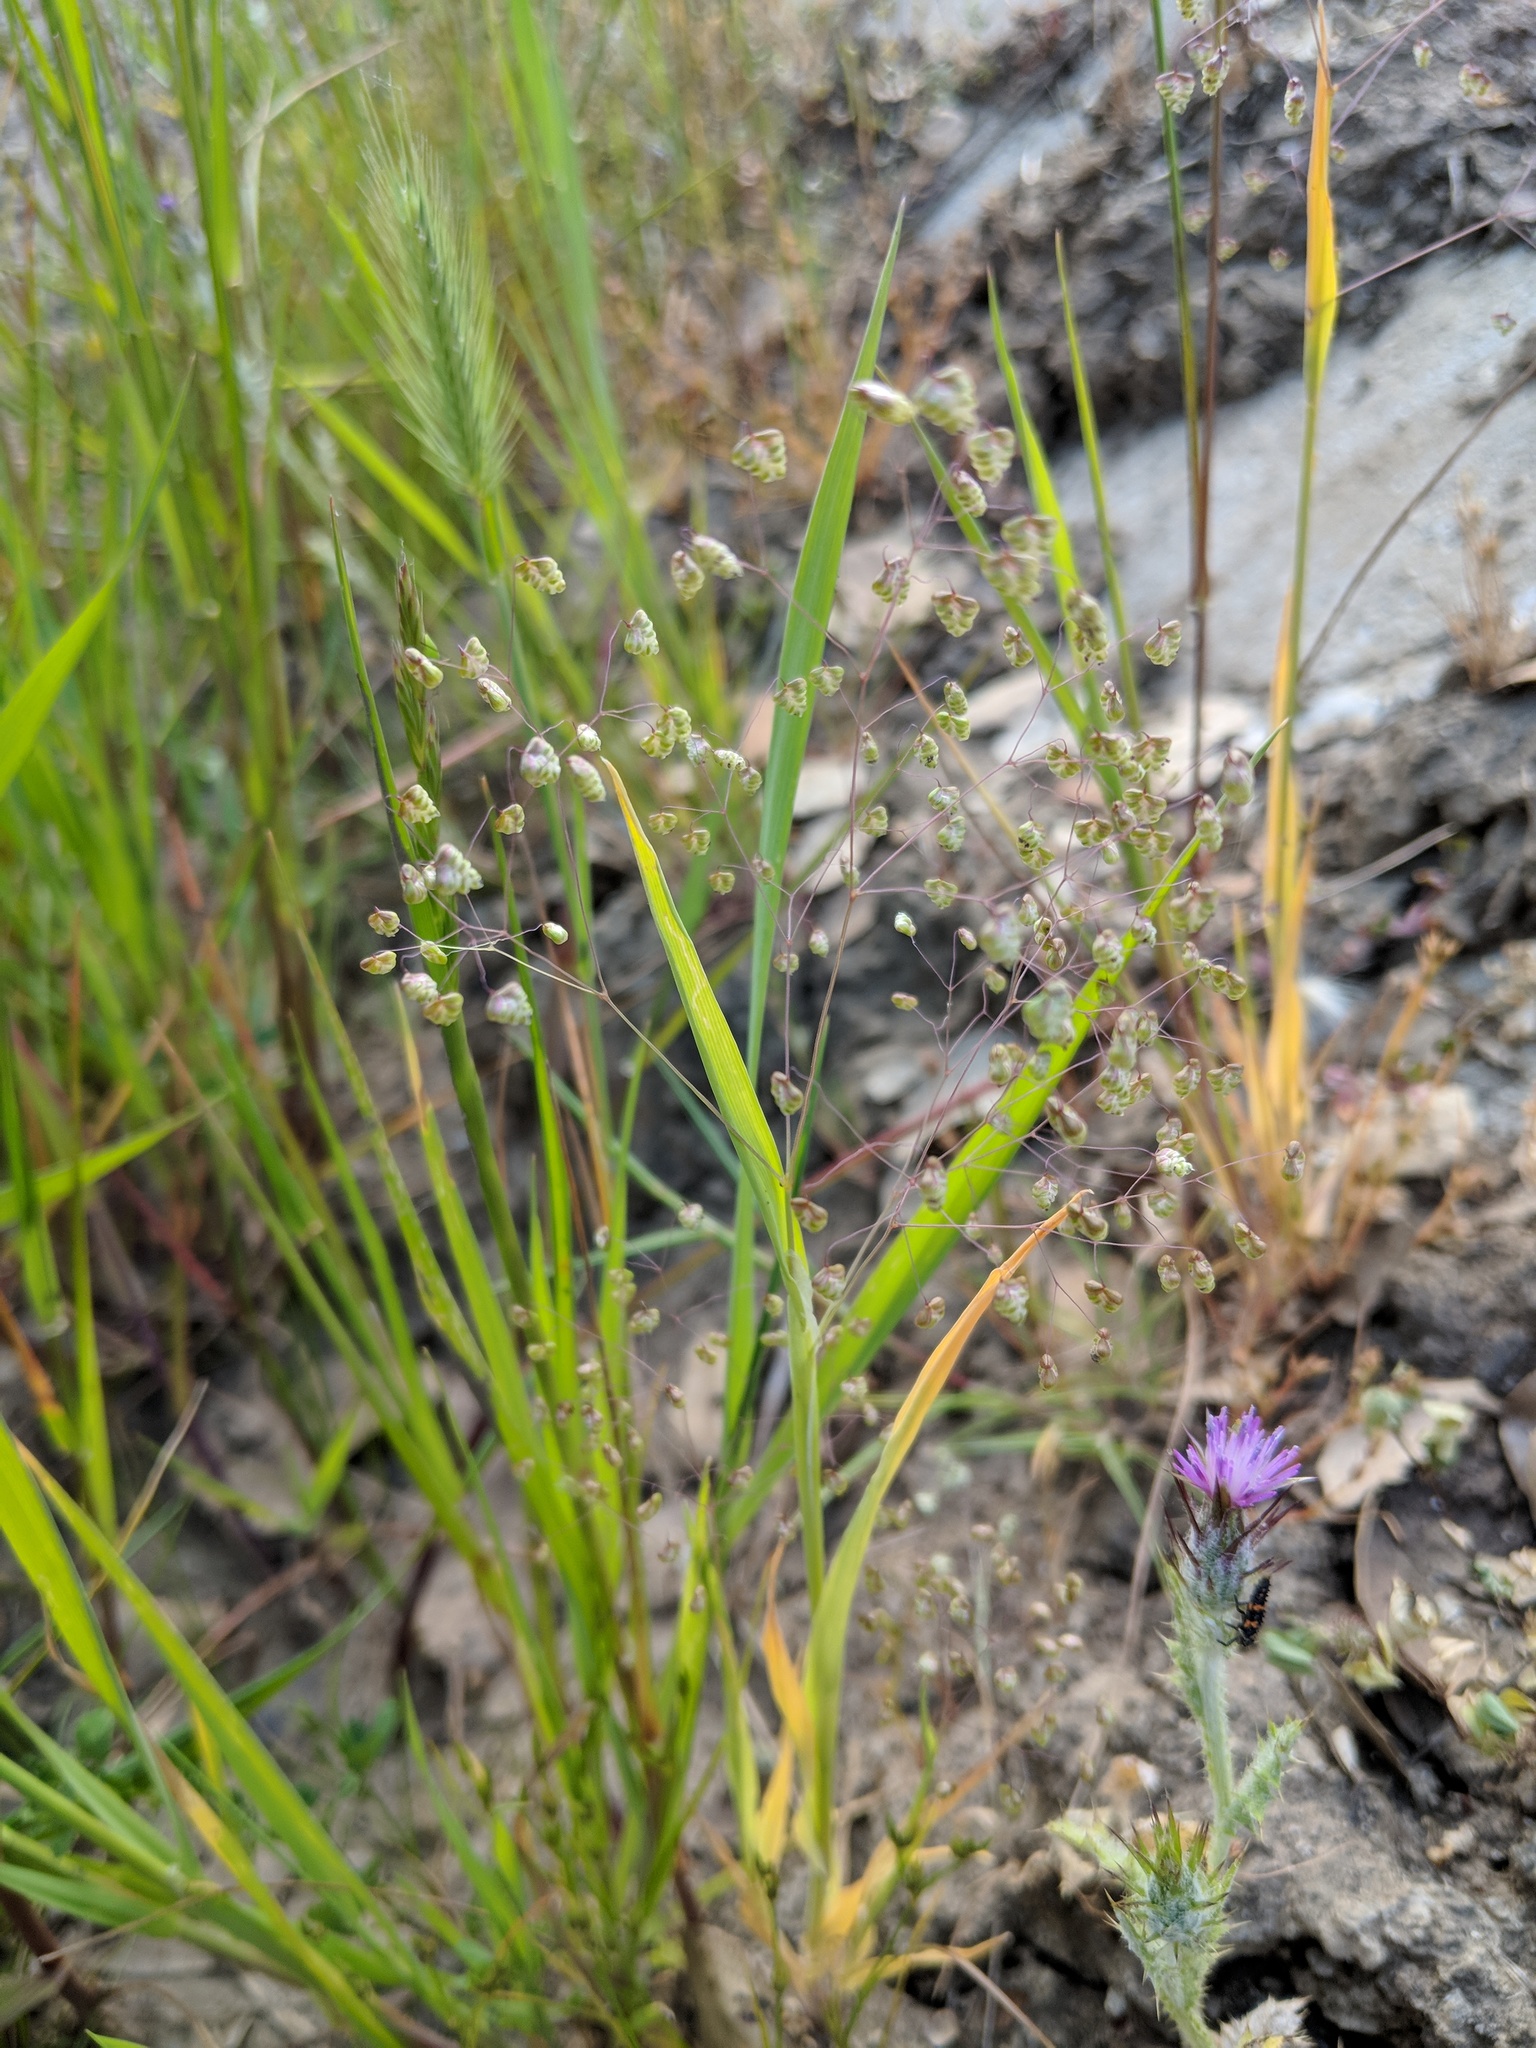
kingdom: Plantae
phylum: Tracheophyta
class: Liliopsida
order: Poales
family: Poaceae
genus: Briza
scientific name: Briza minor
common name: Lesser quaking-grass
